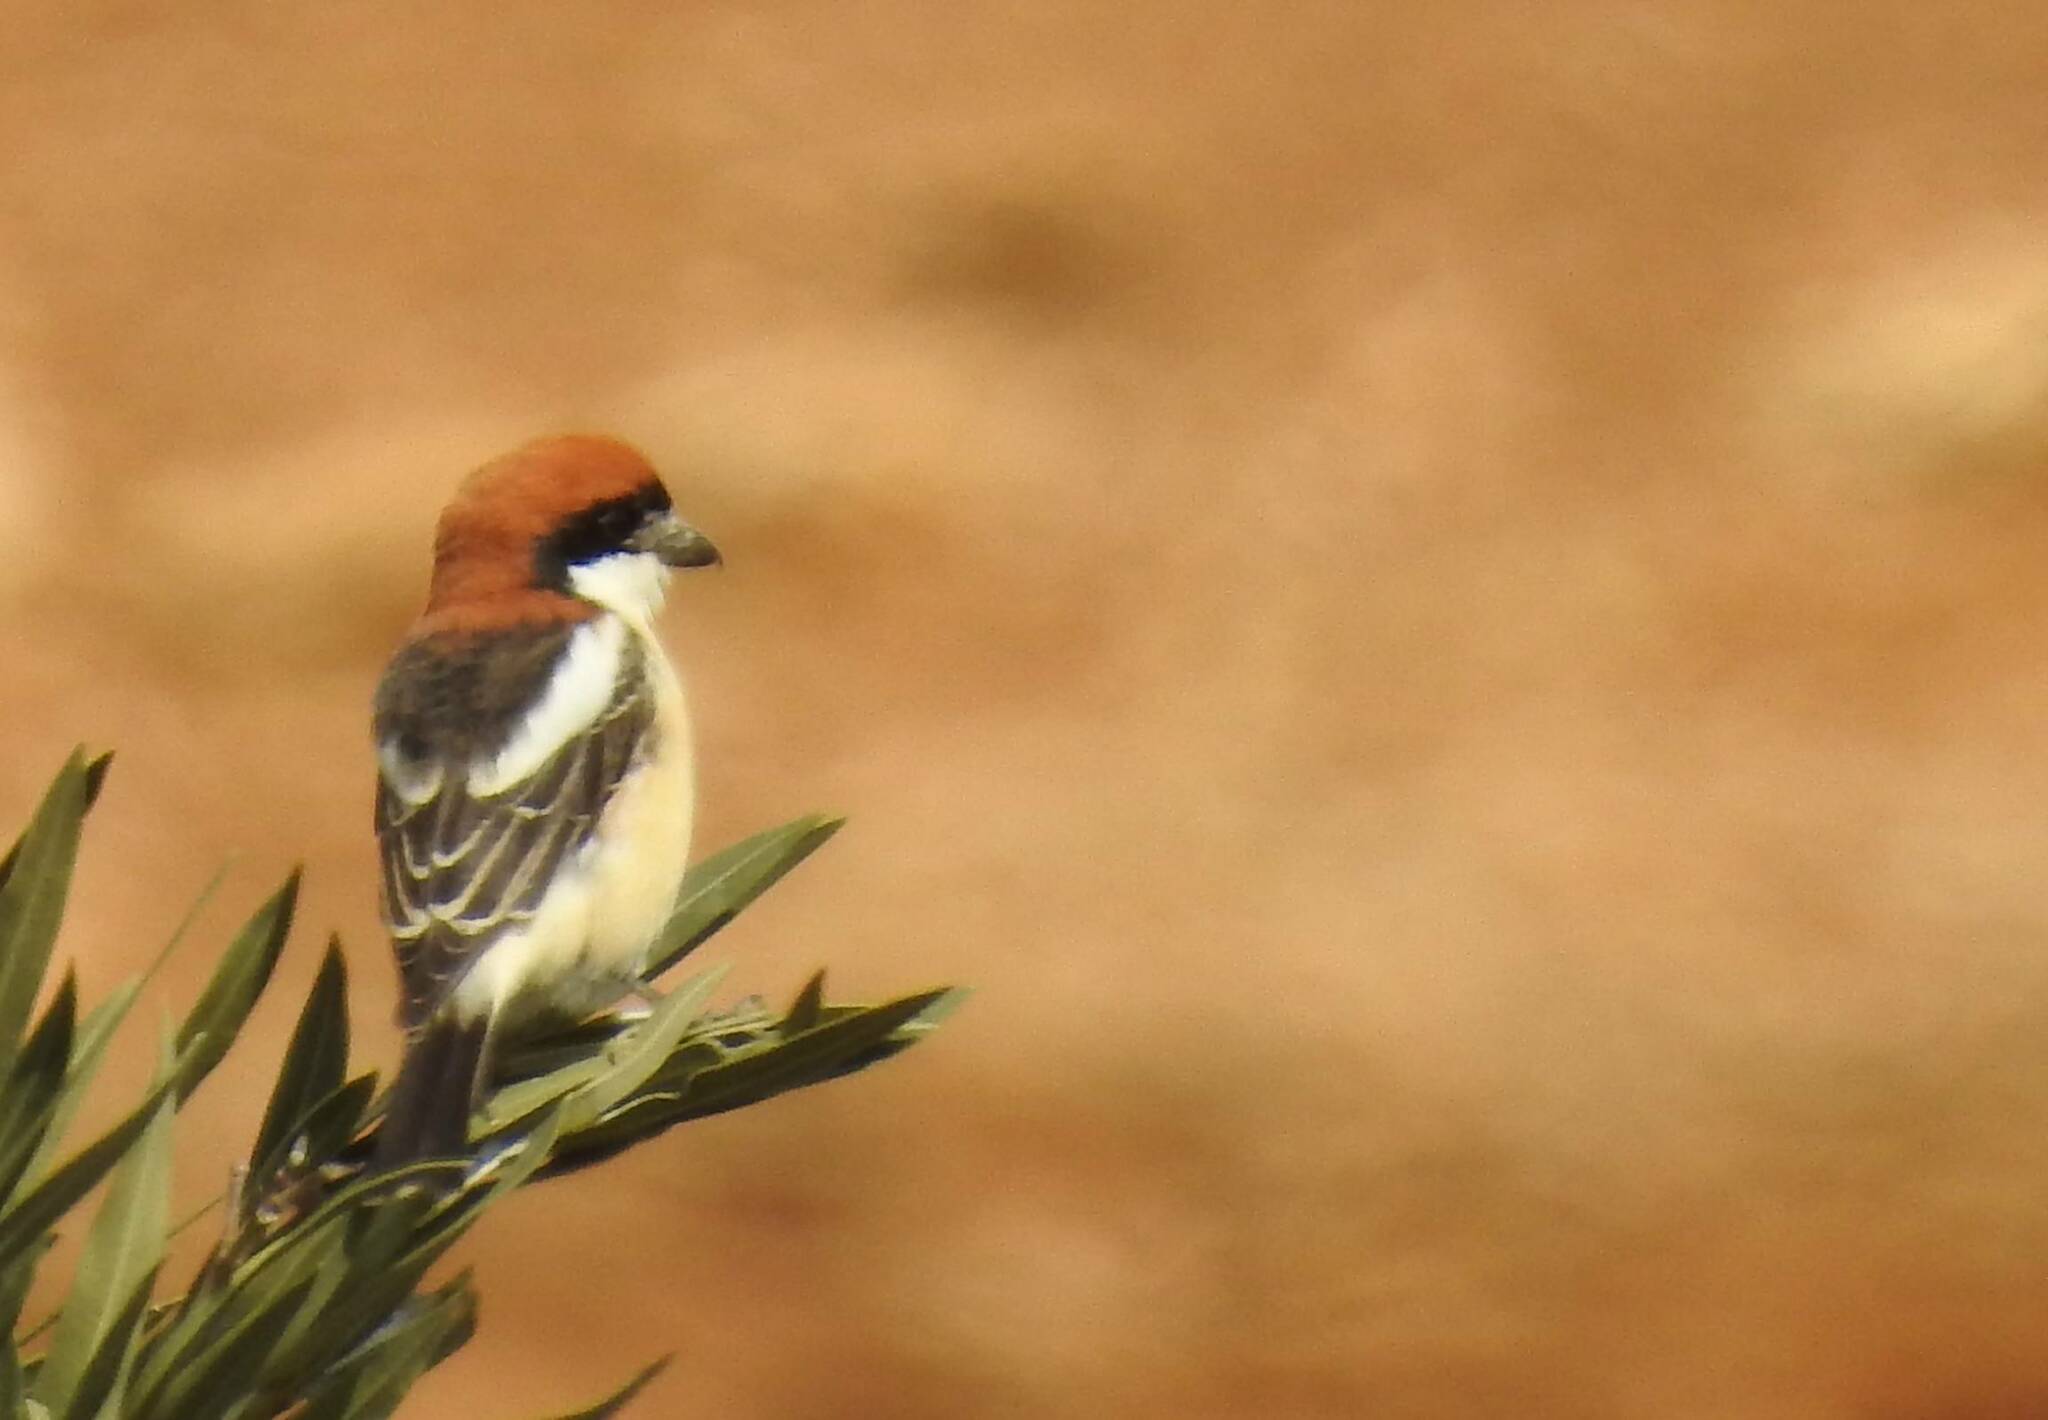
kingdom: Animalia
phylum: Chordata
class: Aves
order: Passeriformes
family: Laniidae
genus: Lanius
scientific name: Lanius senator
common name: Woodchat shrike
